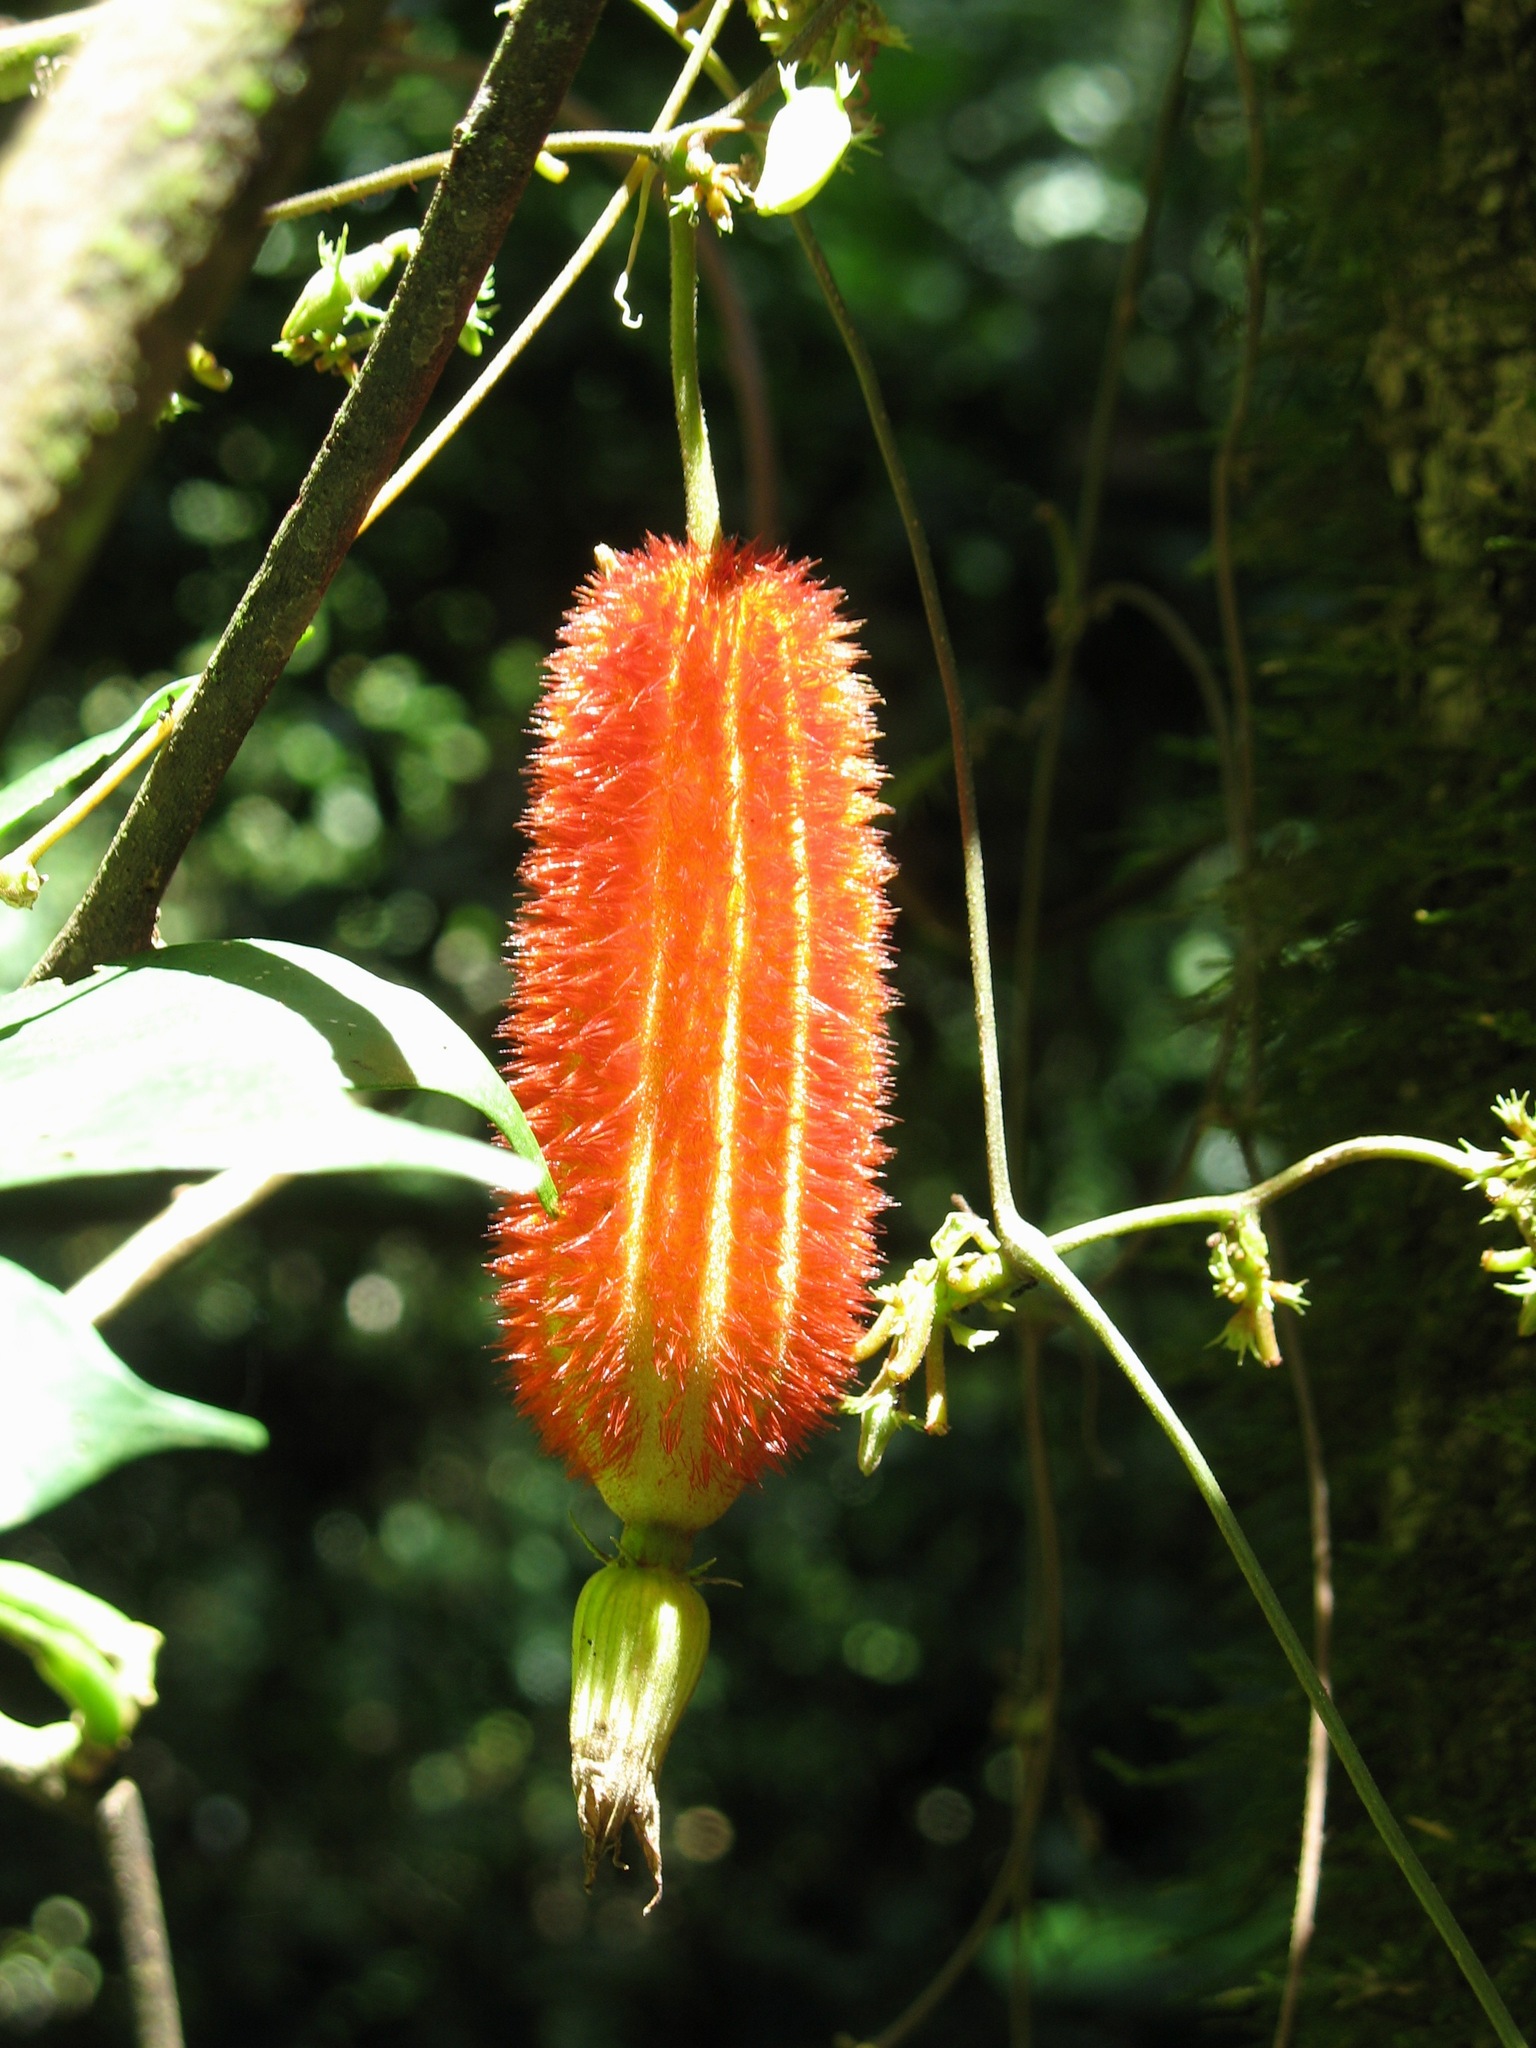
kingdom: Plantae
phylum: Tracheophyta
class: Magnoliopsida
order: Cucurbitales
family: Cucurbitaceae
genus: Raphidiocystis
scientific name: Raphidiocystis jeffreyana
